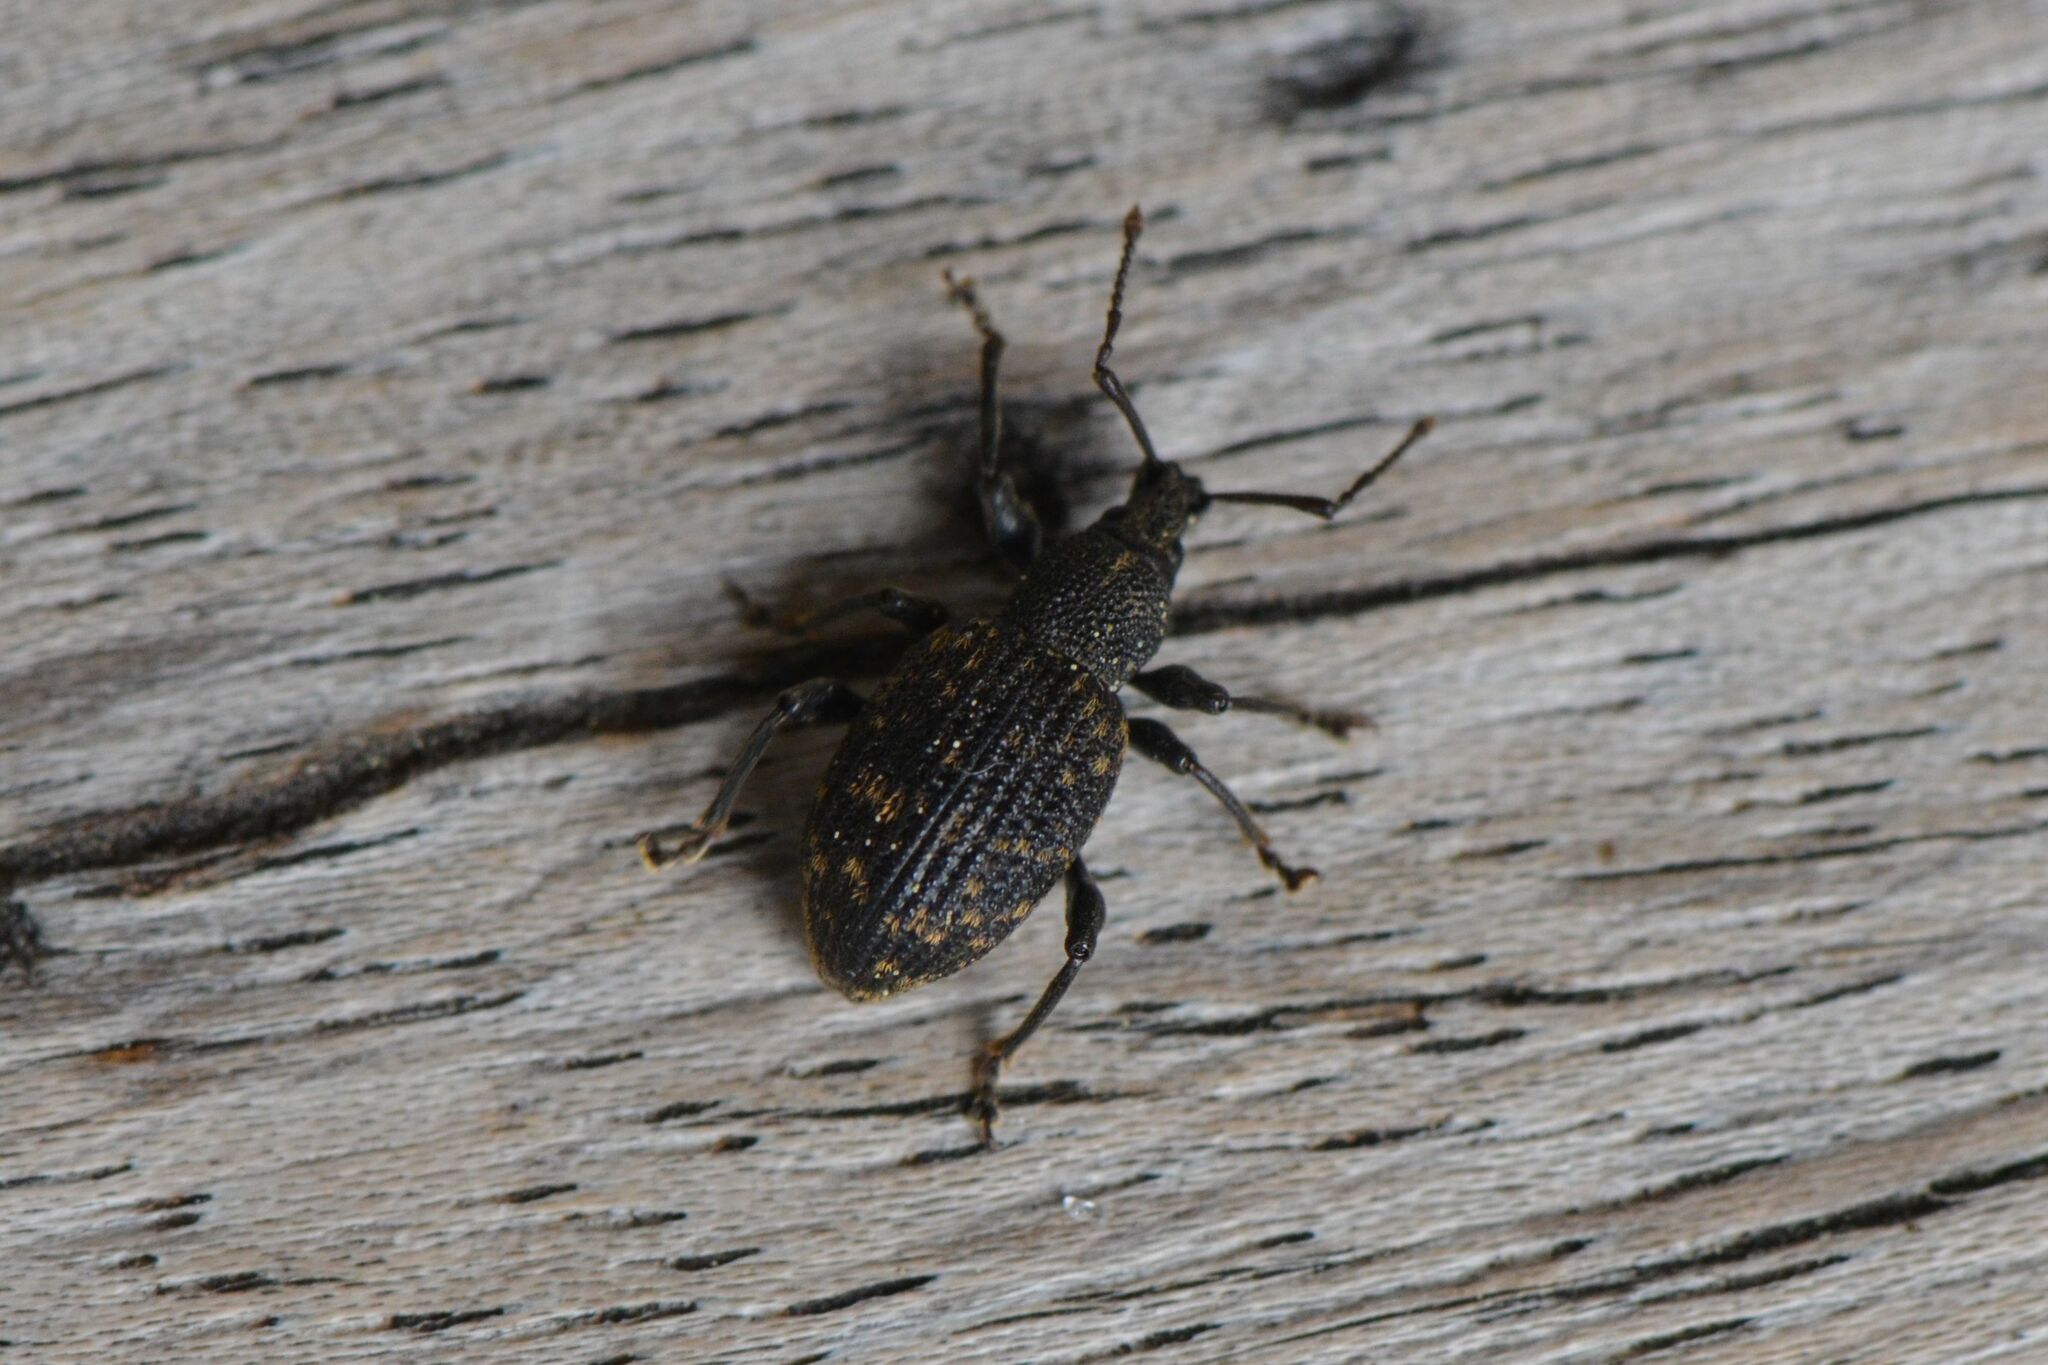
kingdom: Animalia
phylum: Arthropoda
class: Insecta
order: Coleoptera
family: Curculionidae
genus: Otiorhynchus
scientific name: Otiorhynchus sulcatus
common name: Black vine weevil
